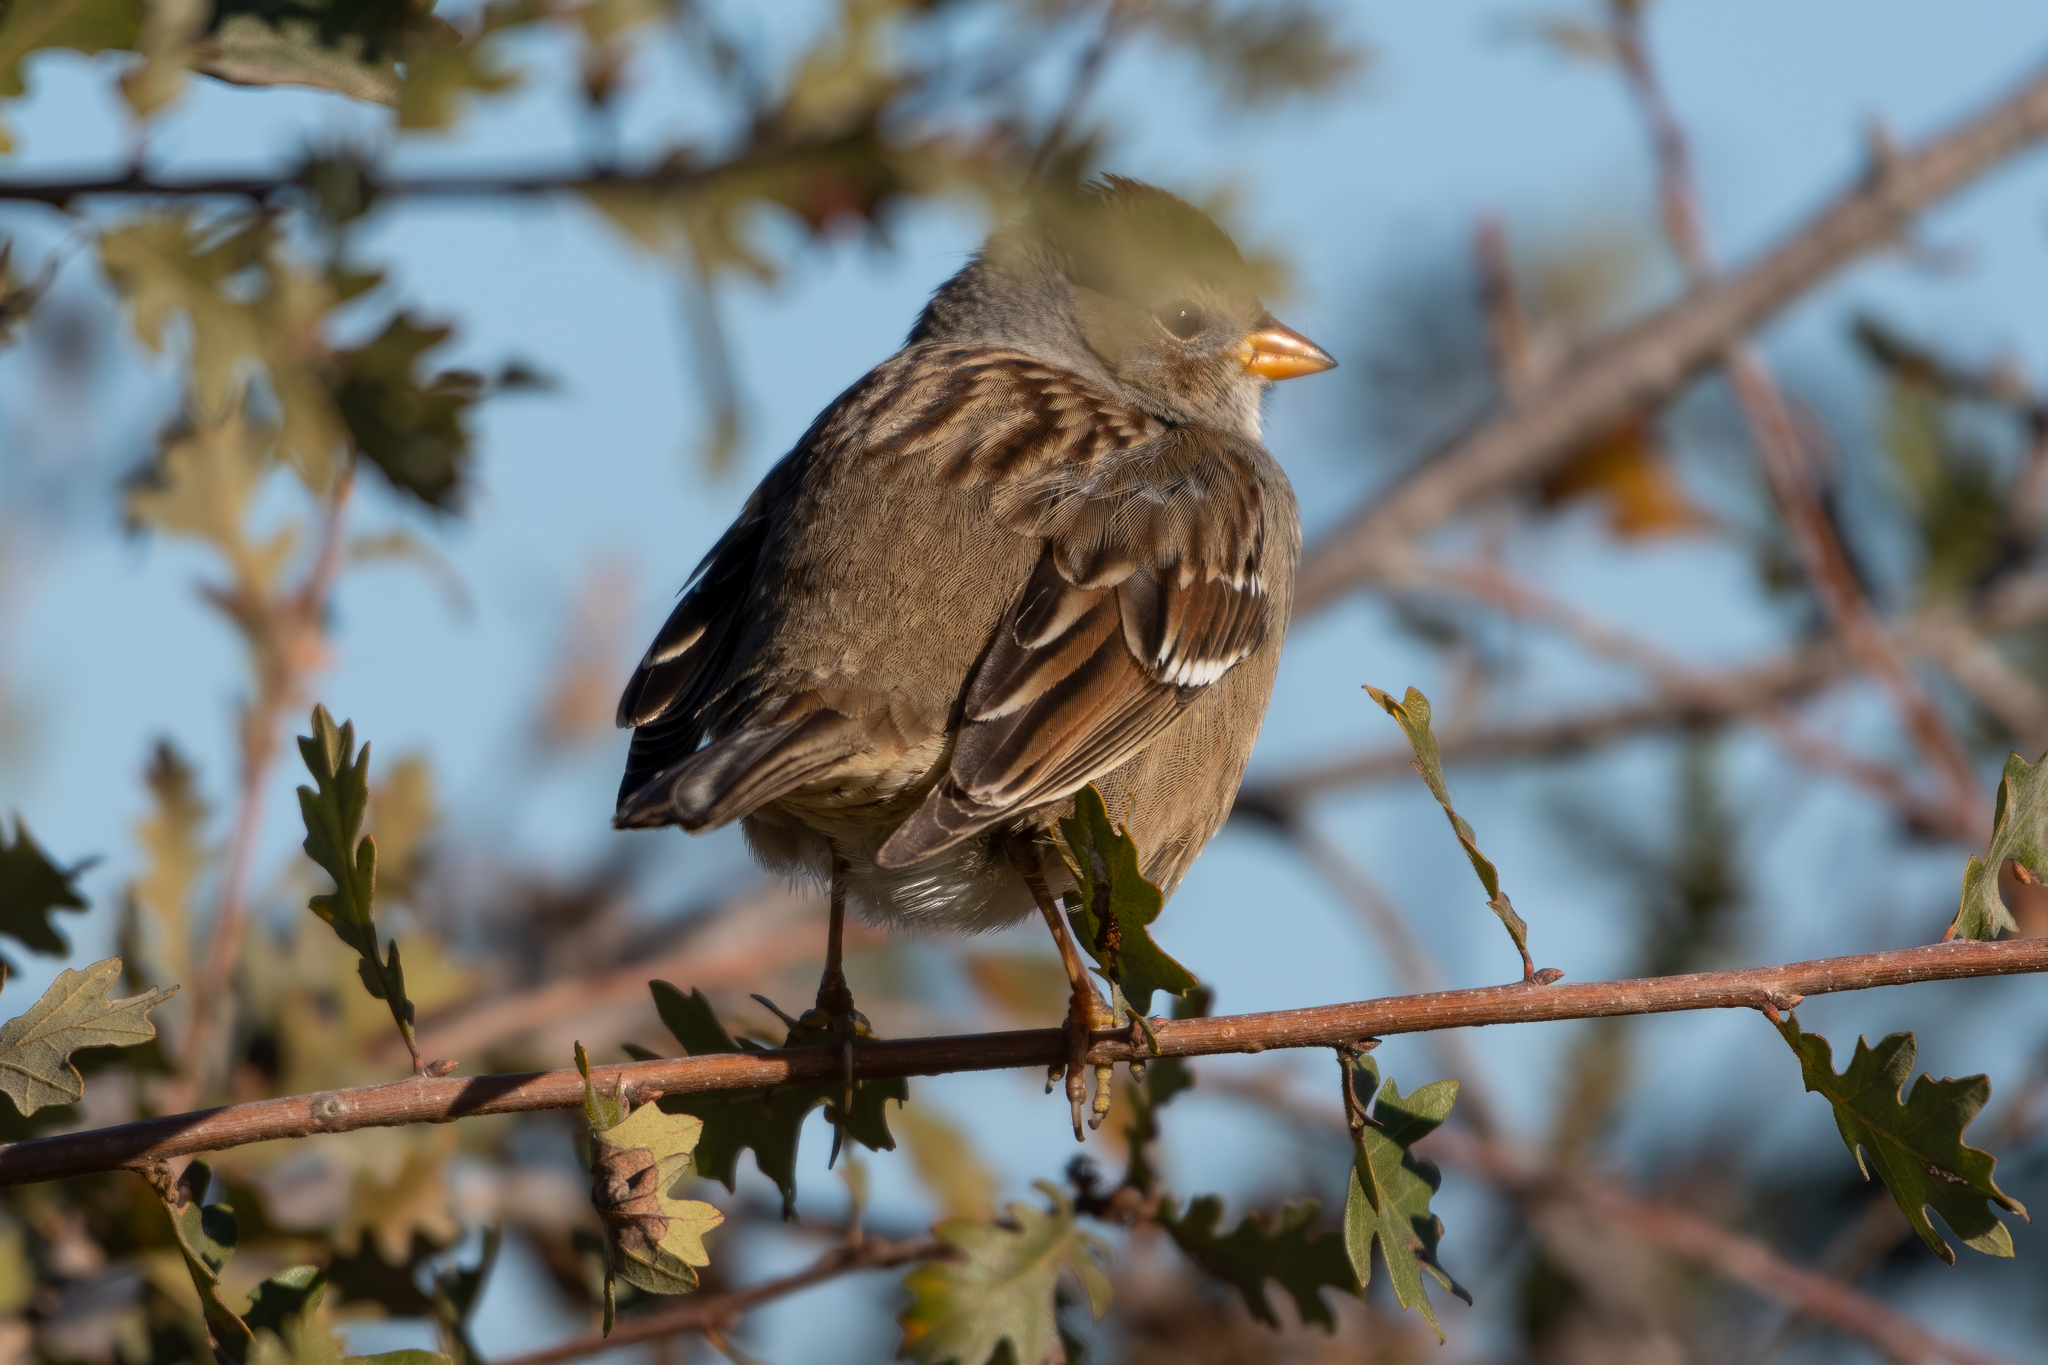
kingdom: Animalia
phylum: Chordata
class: Aves
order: Passeriformes
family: Passerellidae
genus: Zonotrichia
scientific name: Zonotrichia leucophrys
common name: White-crowned sparrow
